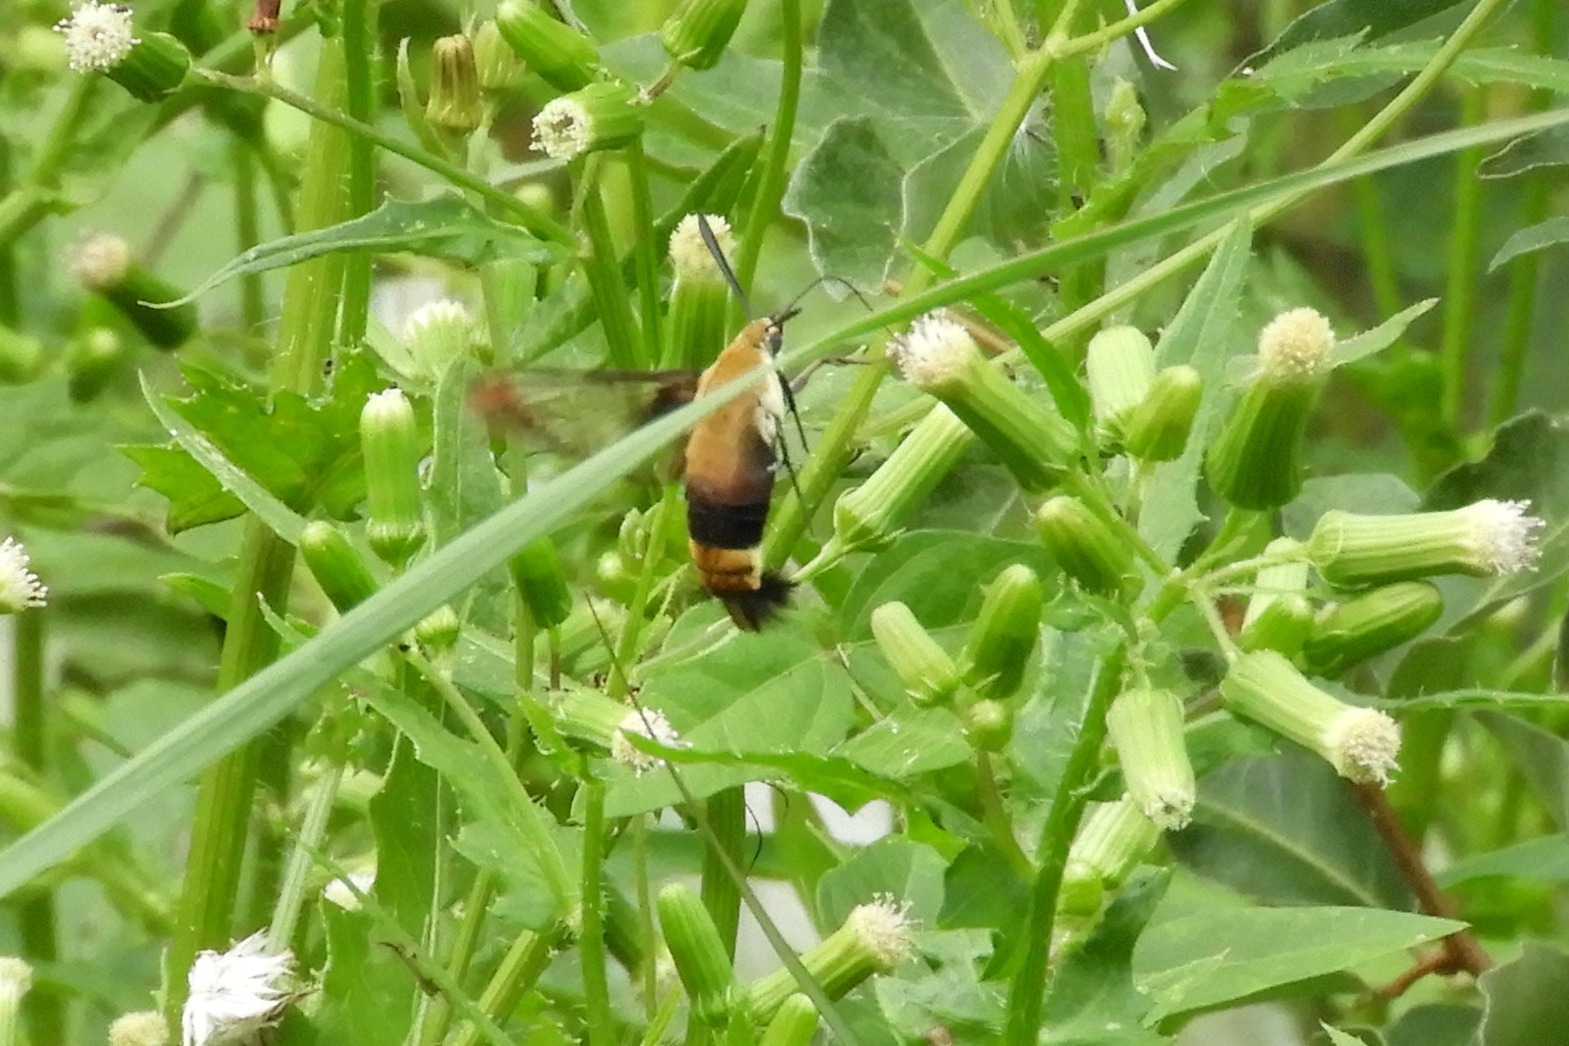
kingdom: Animalia
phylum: Arthropoda
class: Insecta
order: Lepidoptera
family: Sphingidae
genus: Hemaris
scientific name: Hemaris diffinis
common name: Bumblebee moth
